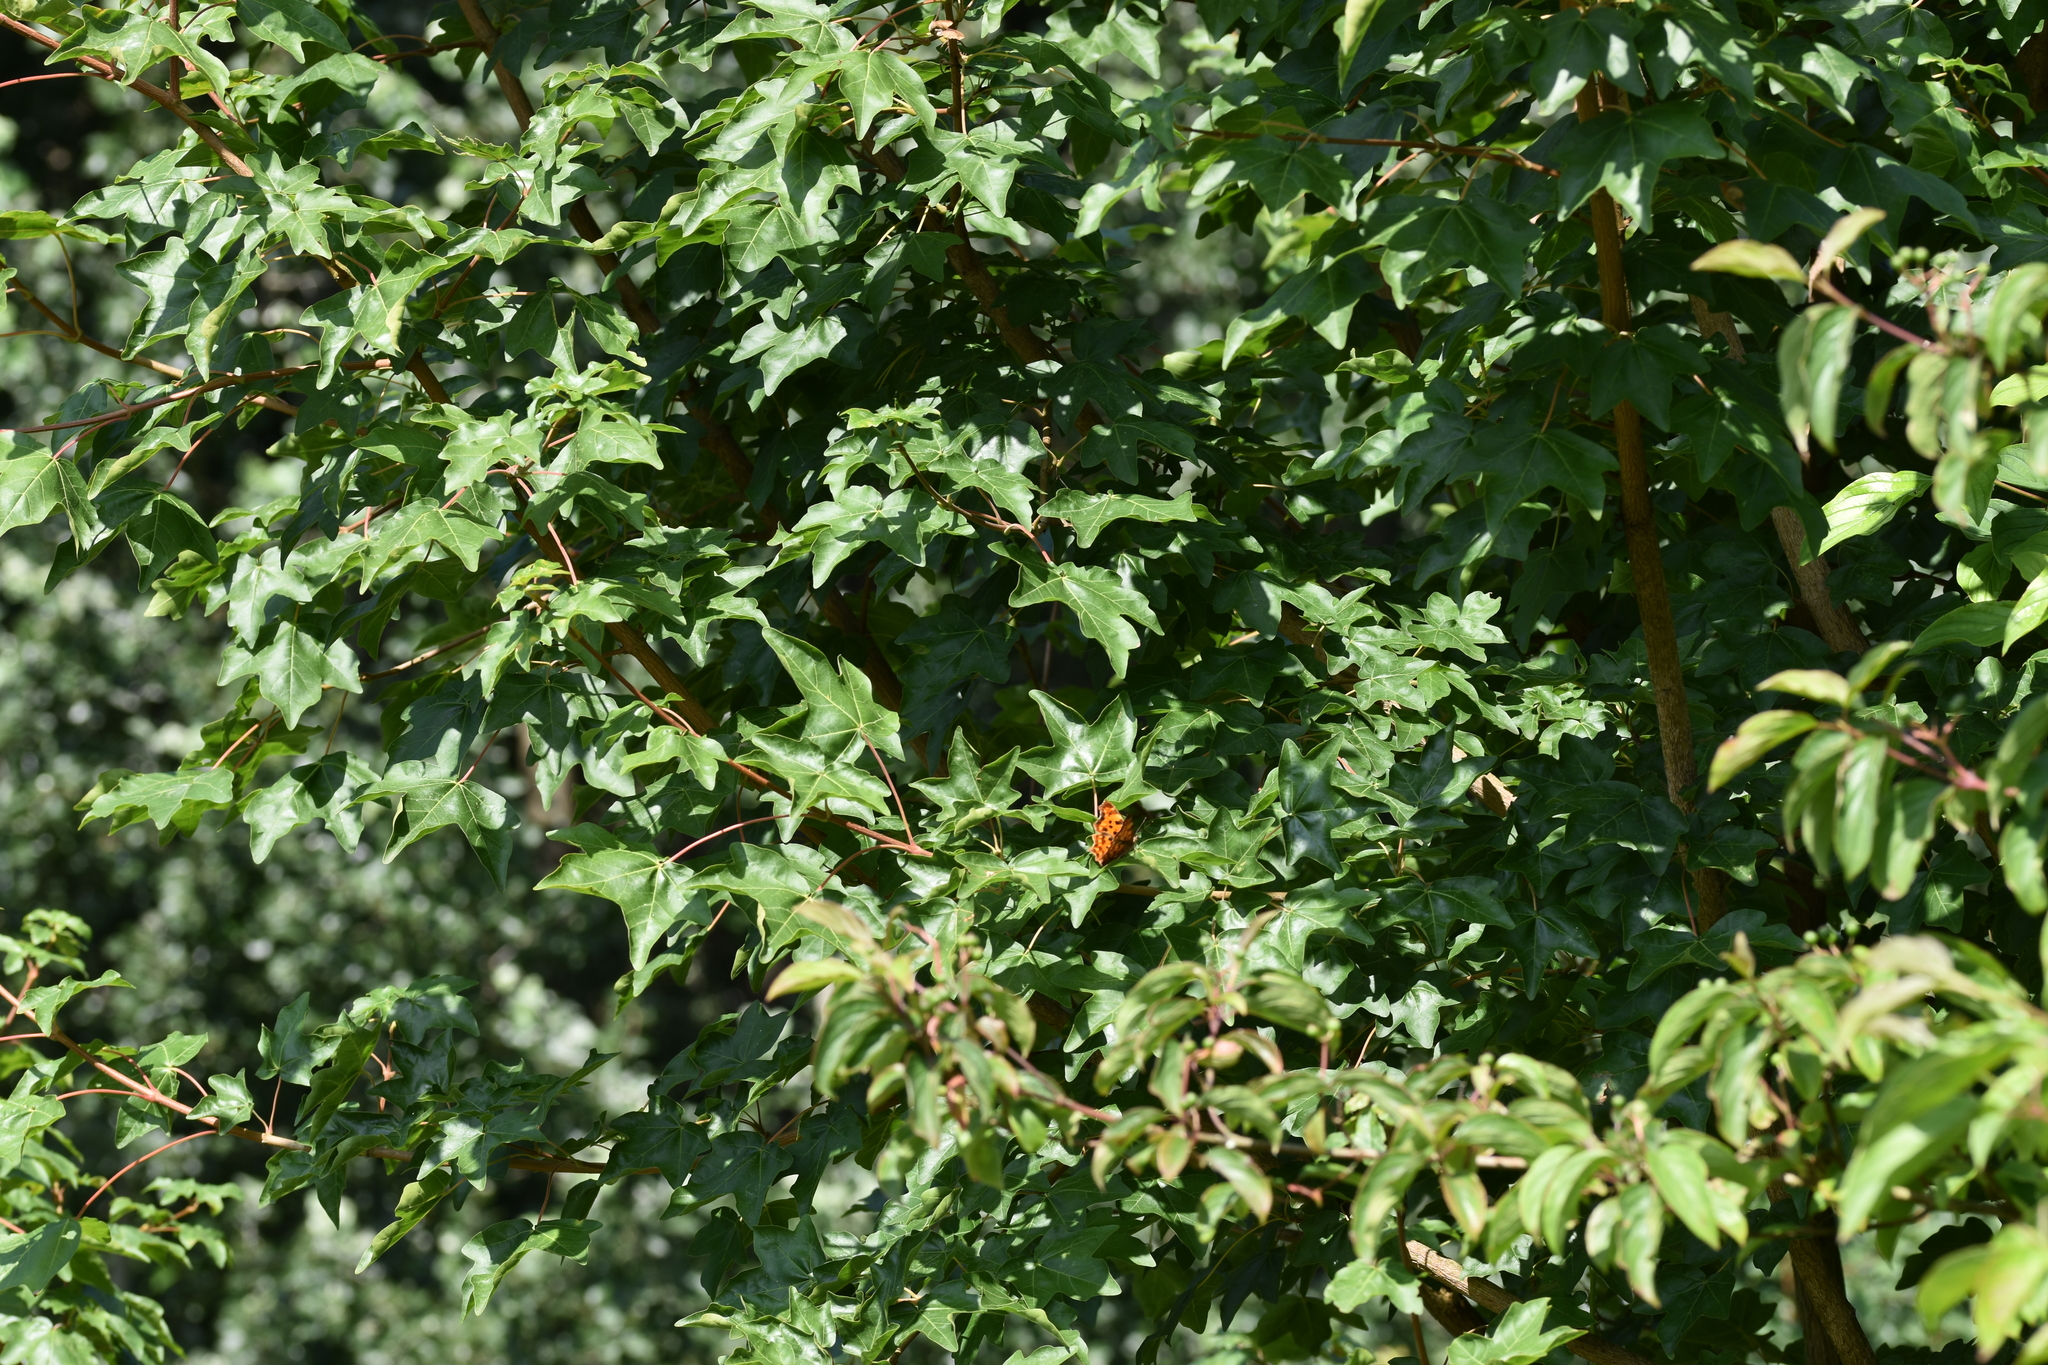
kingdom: Animalia
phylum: Arthropoda
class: Insecta
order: Lepidoptera
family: Nymphalidae
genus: Polygonia
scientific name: Polygonia c-album
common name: Comma
